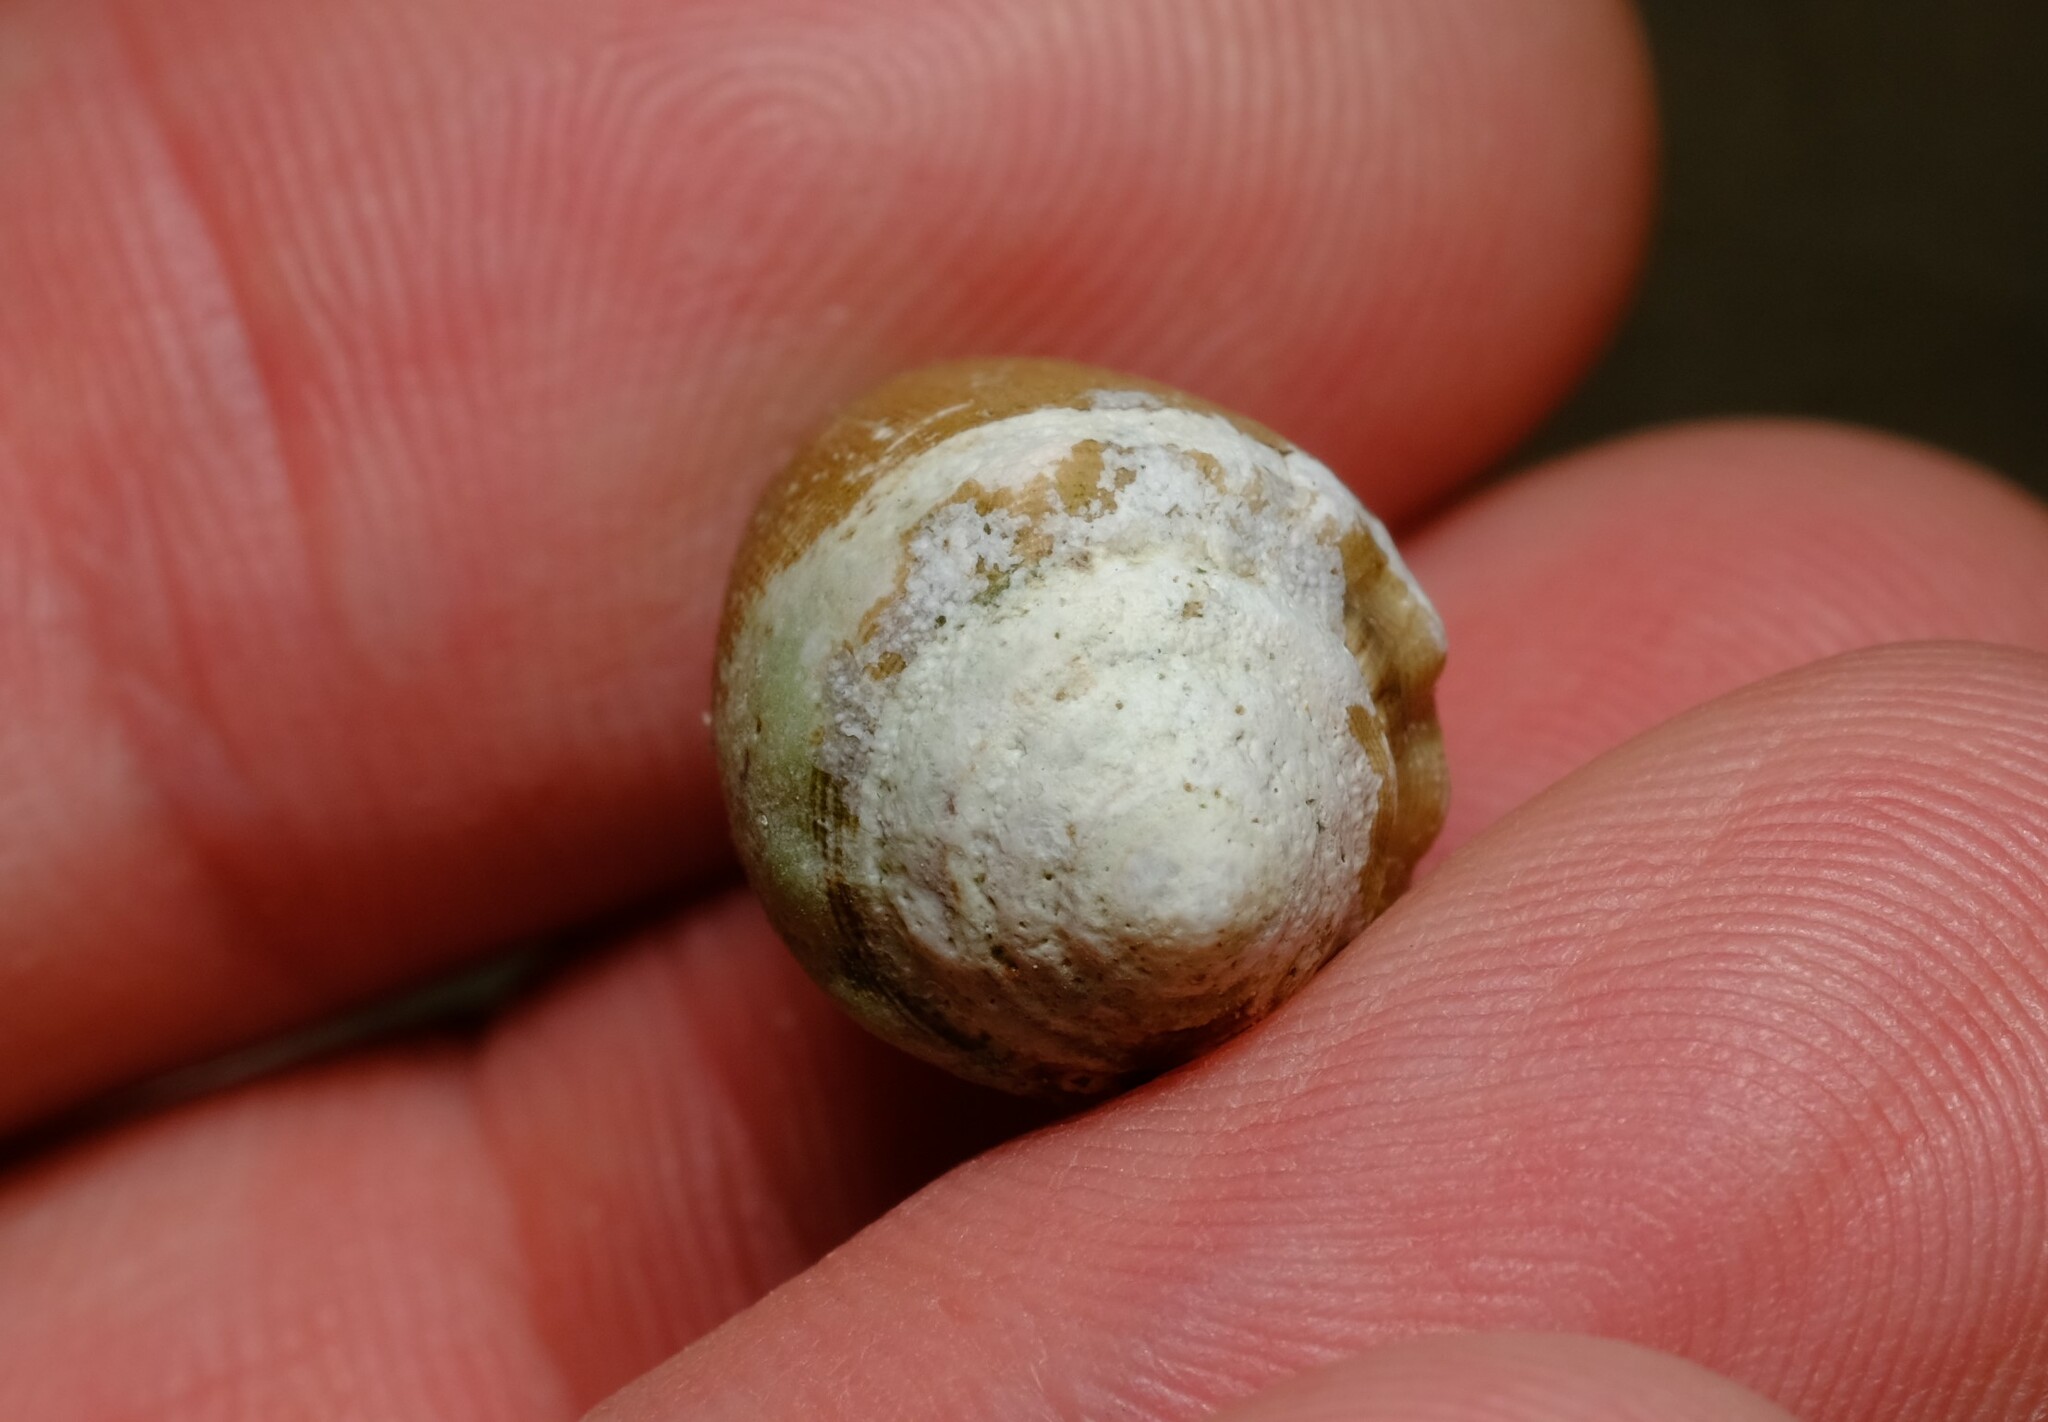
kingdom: Animalia
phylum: Mollusca
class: Gastropoda
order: Neogastropoda
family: Conidae
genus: Conus
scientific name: Conus dorreensis
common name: Pontificial cone
